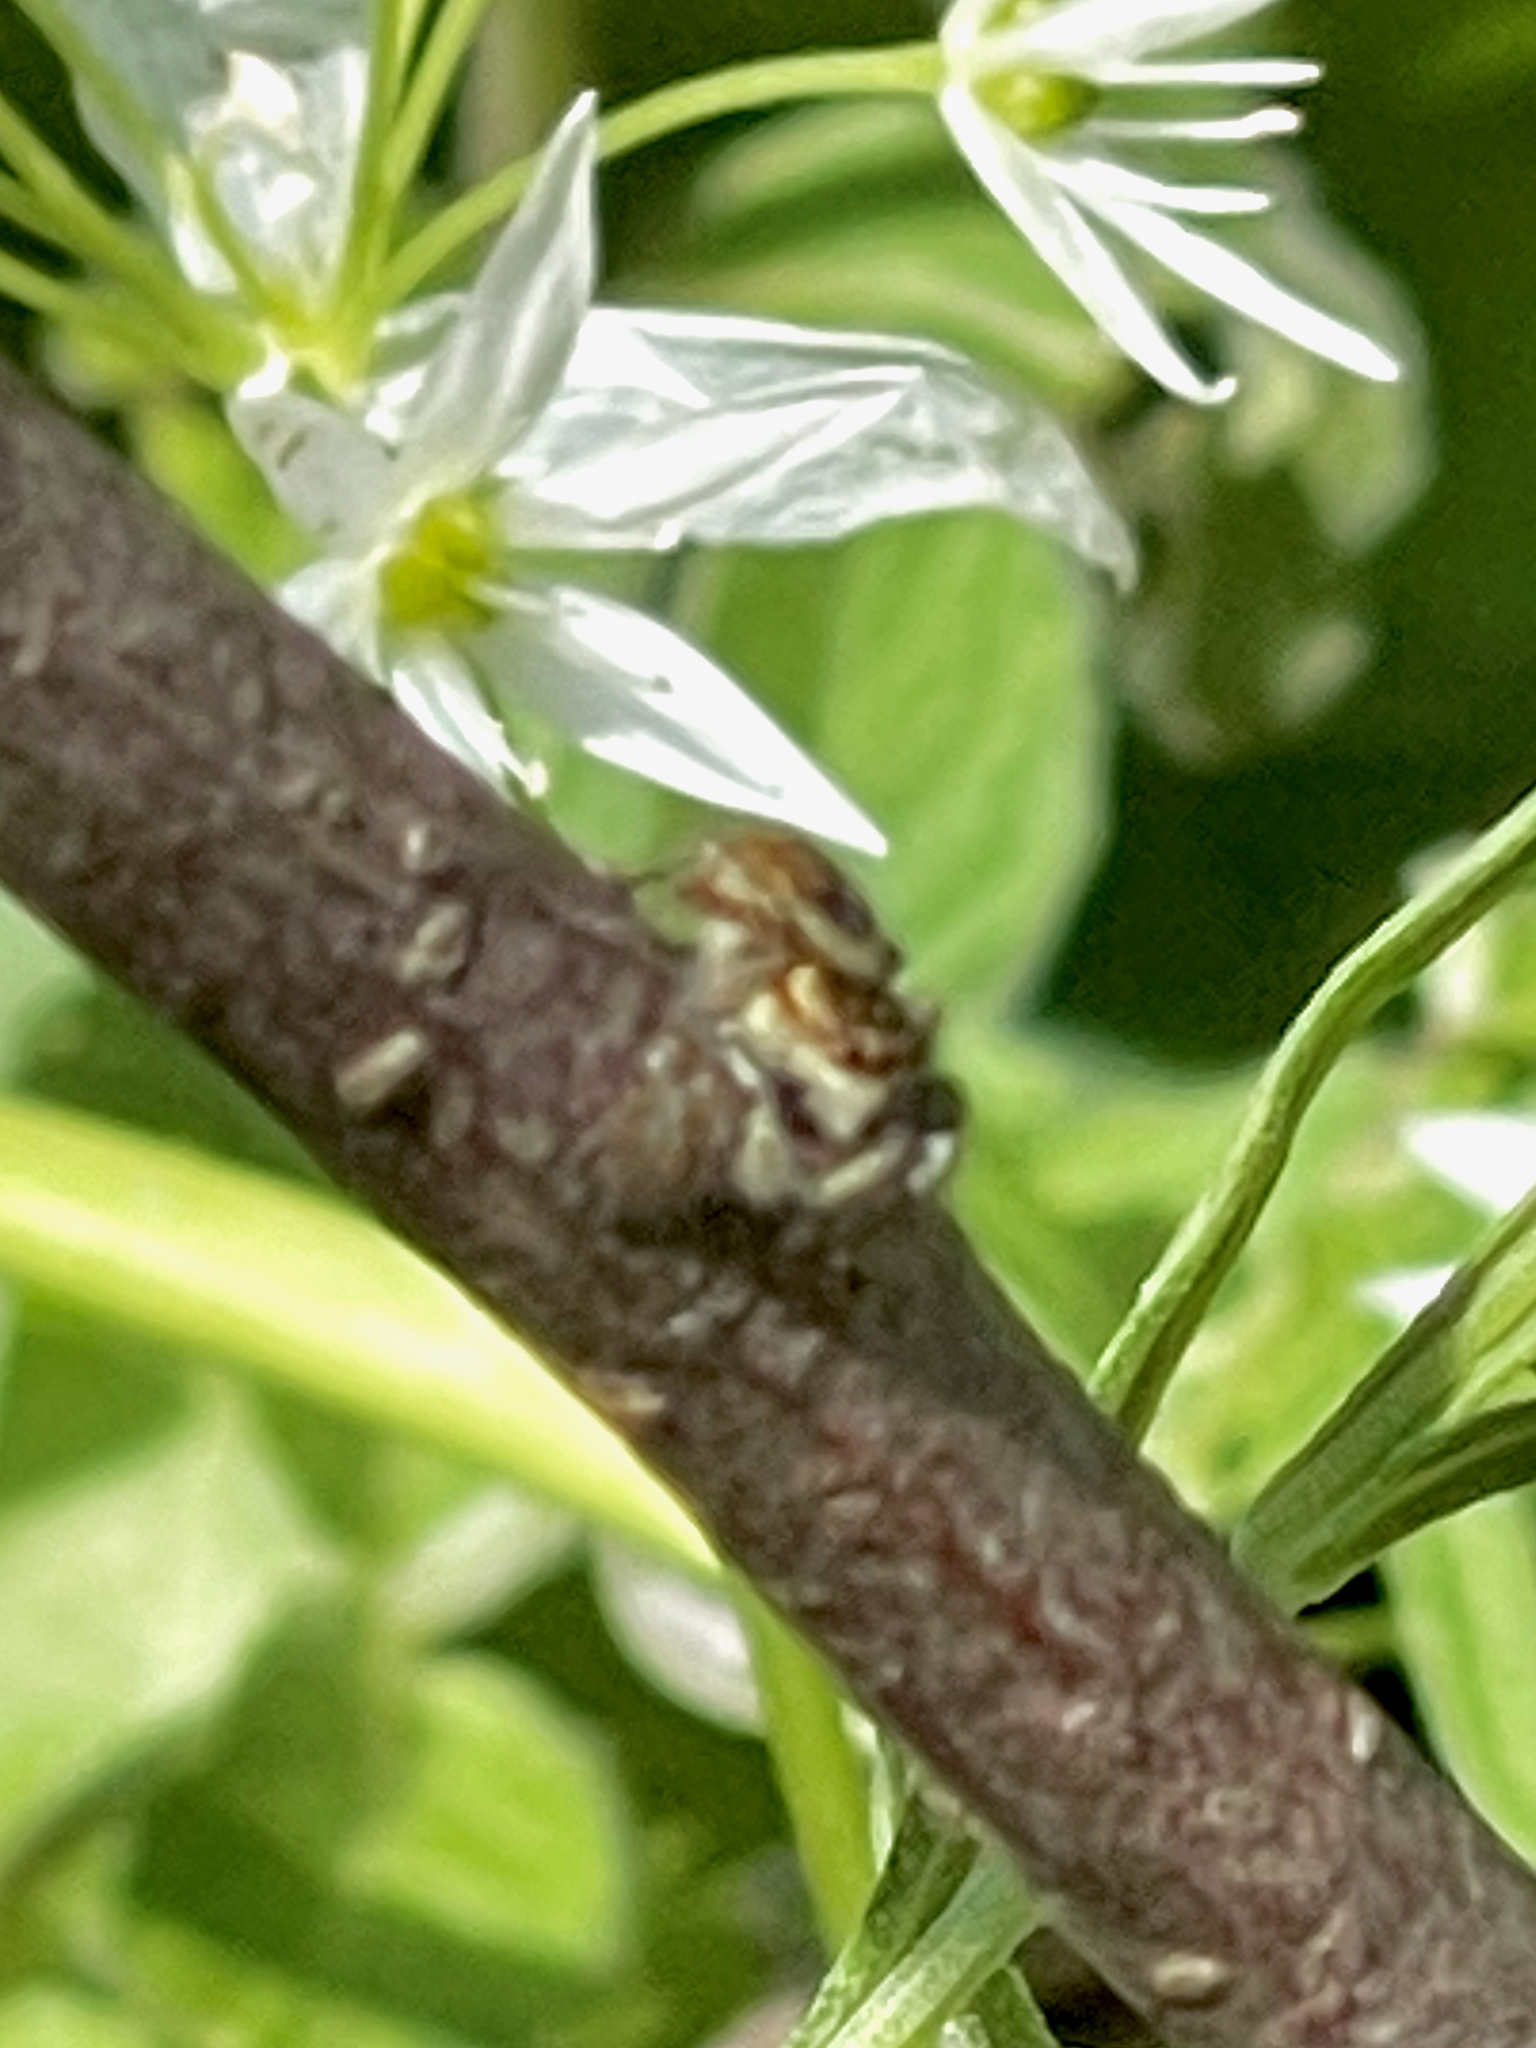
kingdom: Animalia
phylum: Arthropoda
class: Arachnida
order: Araneae
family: Salticidae
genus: Carrhotus
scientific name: Carrhotus xanthogramma
